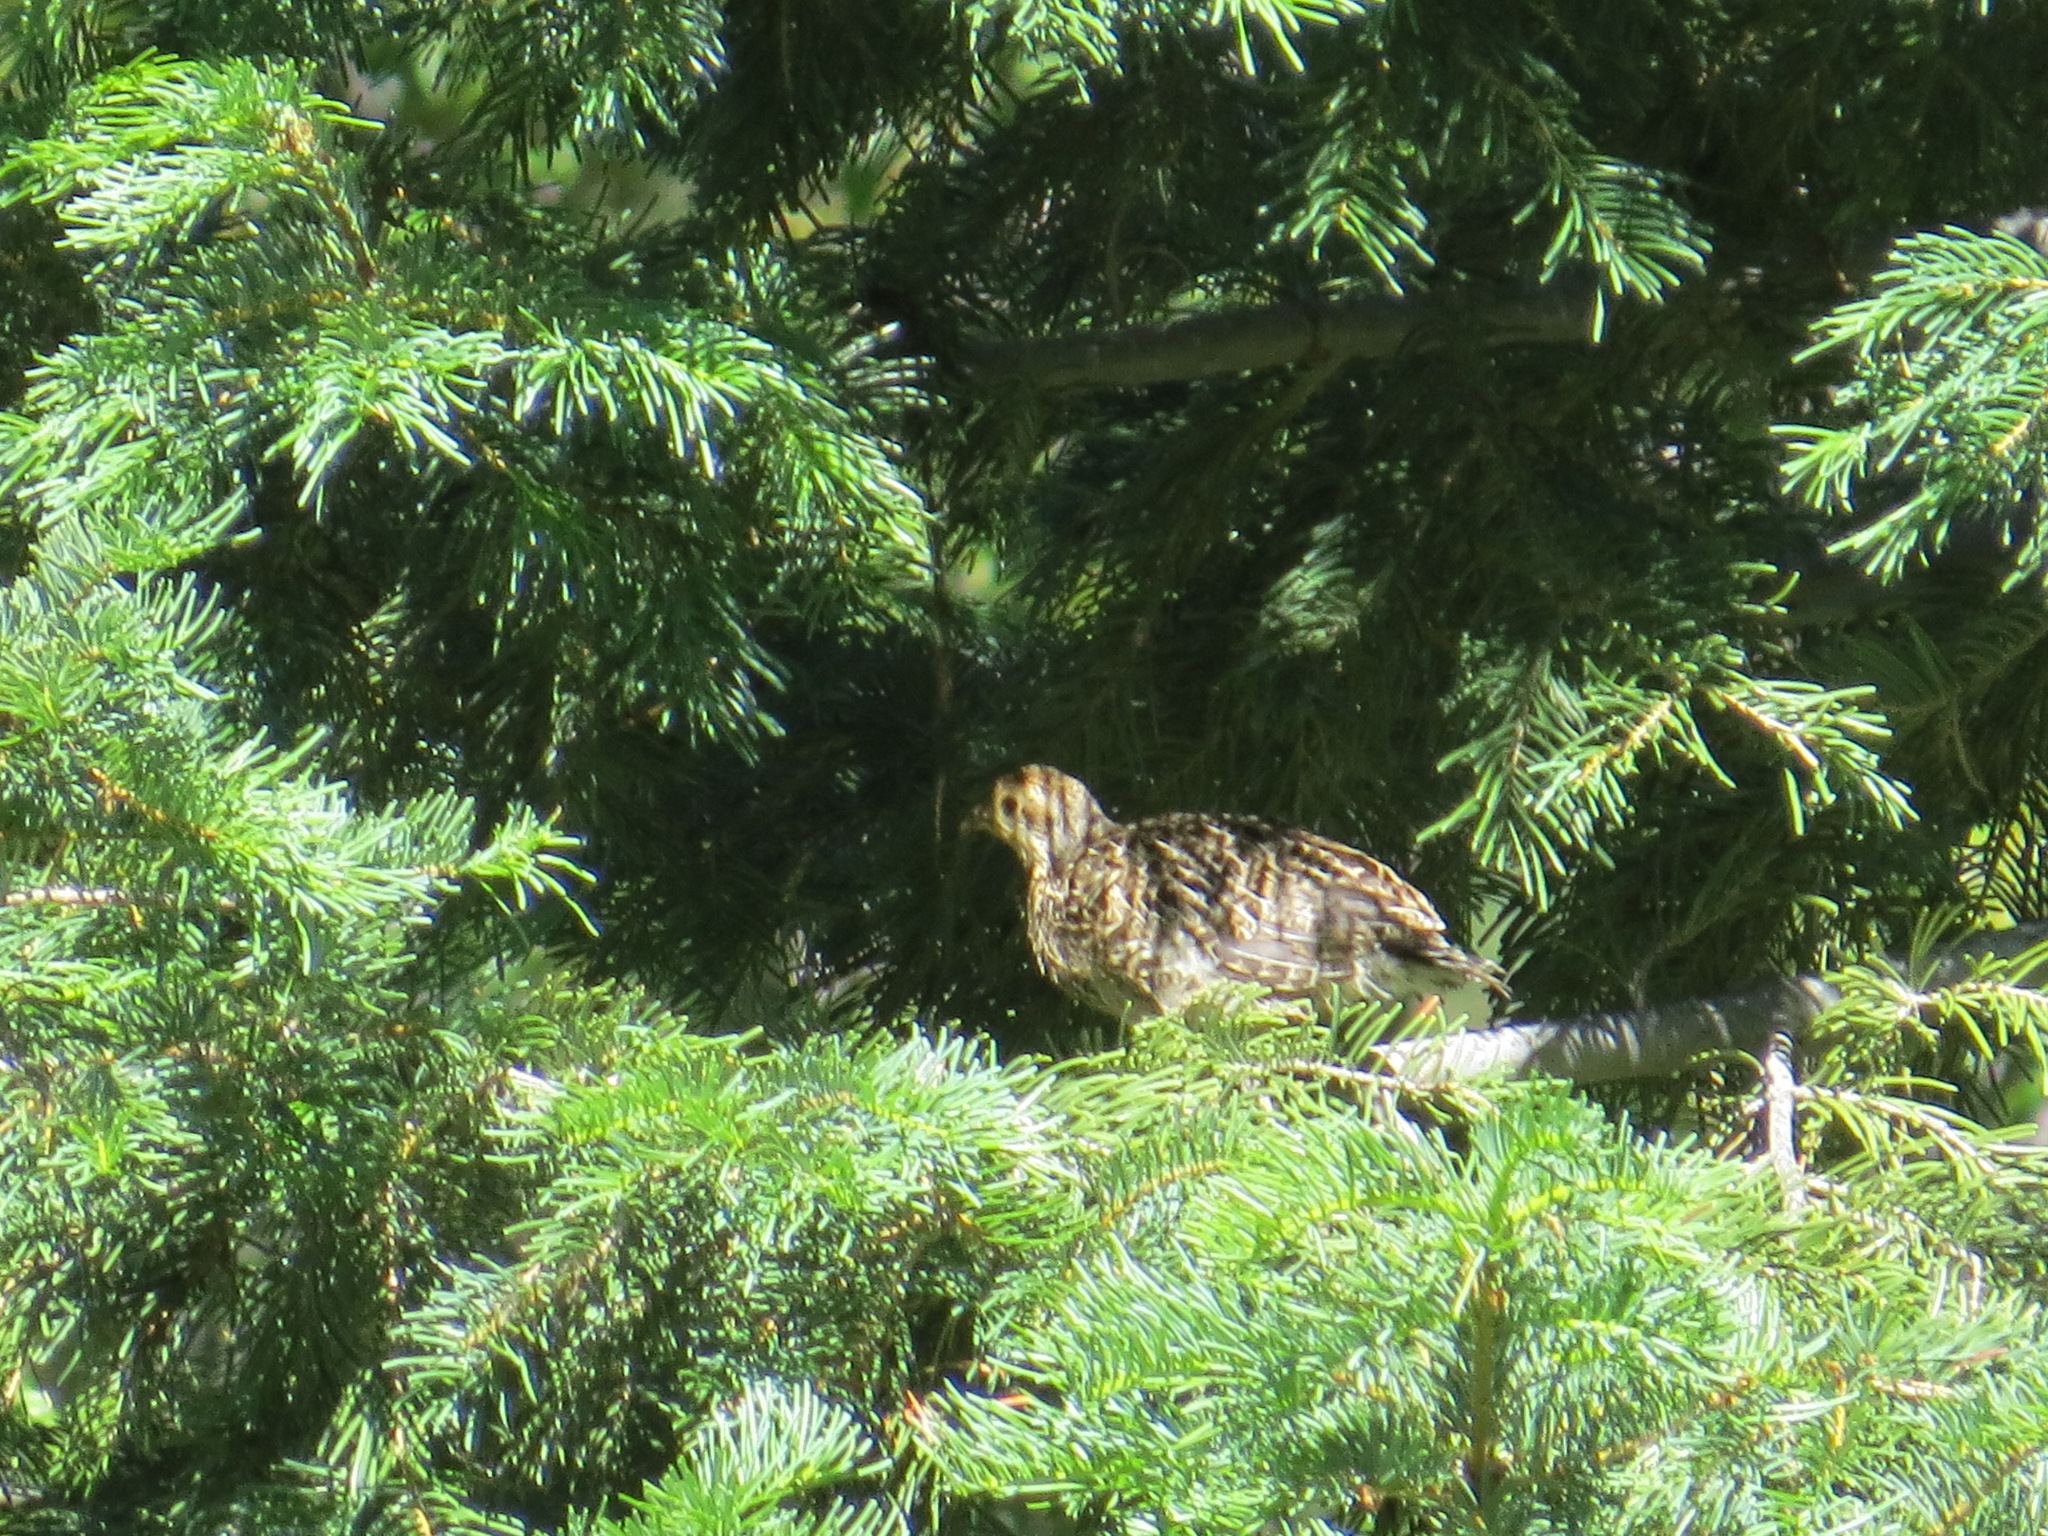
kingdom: Animalia
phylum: Chordata
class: Aves
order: Galliformes
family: Phasianidae
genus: Dendragapus
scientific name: Dendragapus fuliginosus
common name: Sooty grouse
